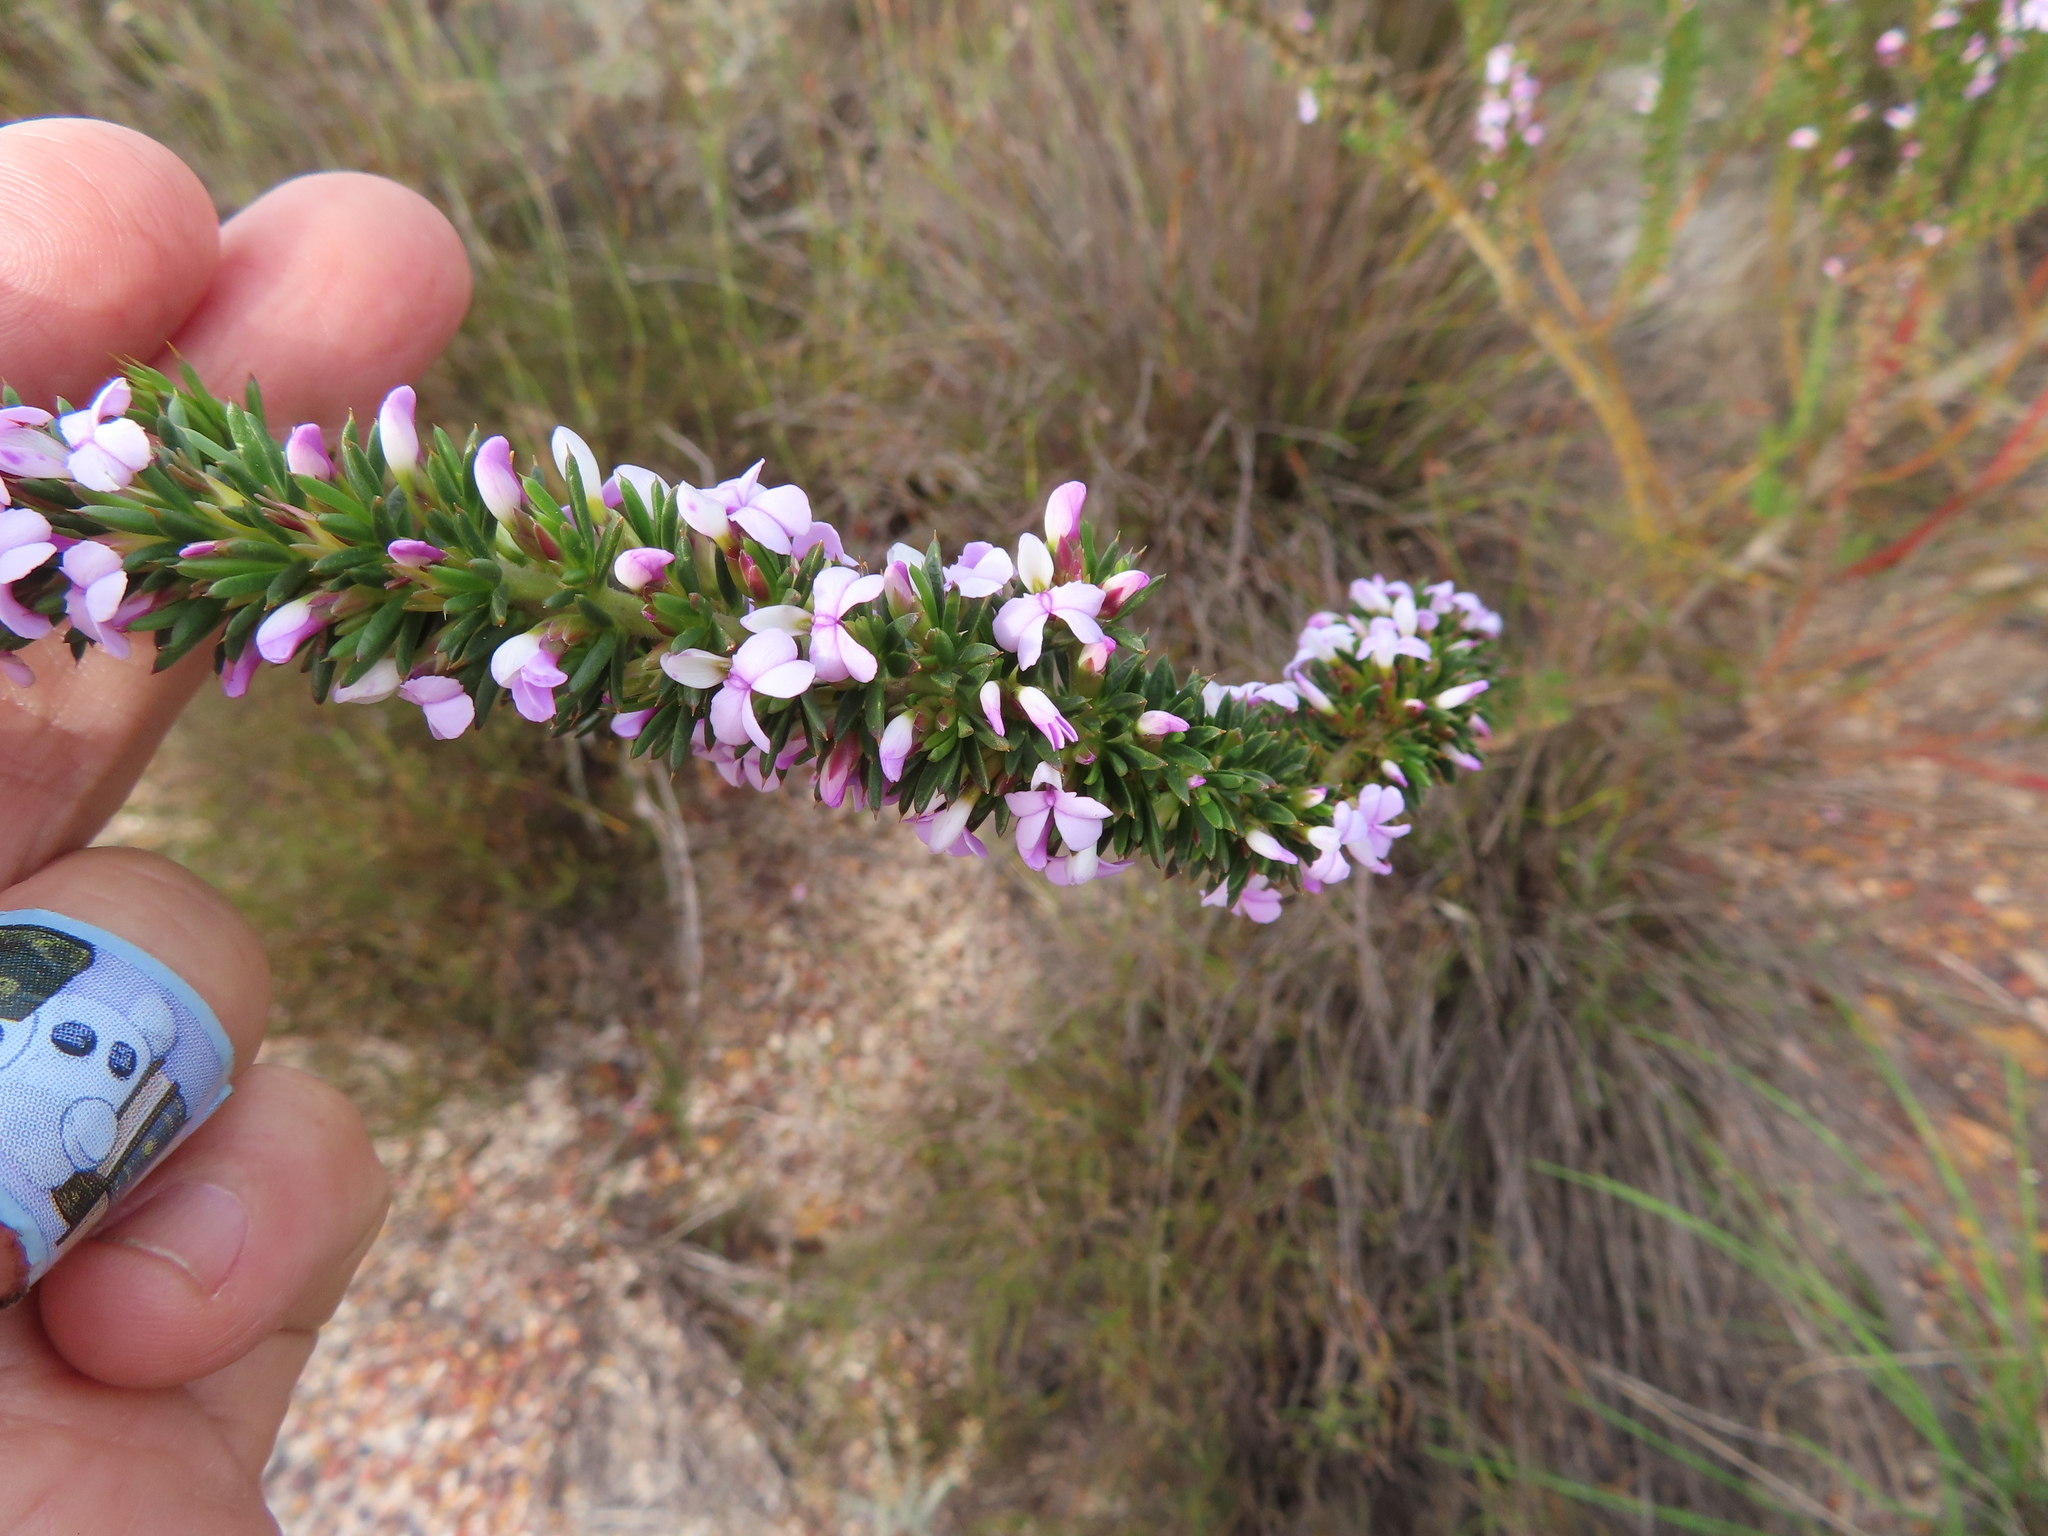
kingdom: Plantae
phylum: Tracheophyta
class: Magnoliopsida
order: Fabales
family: Polygalaceae
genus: Muraltia
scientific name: Muraltia heisteria
